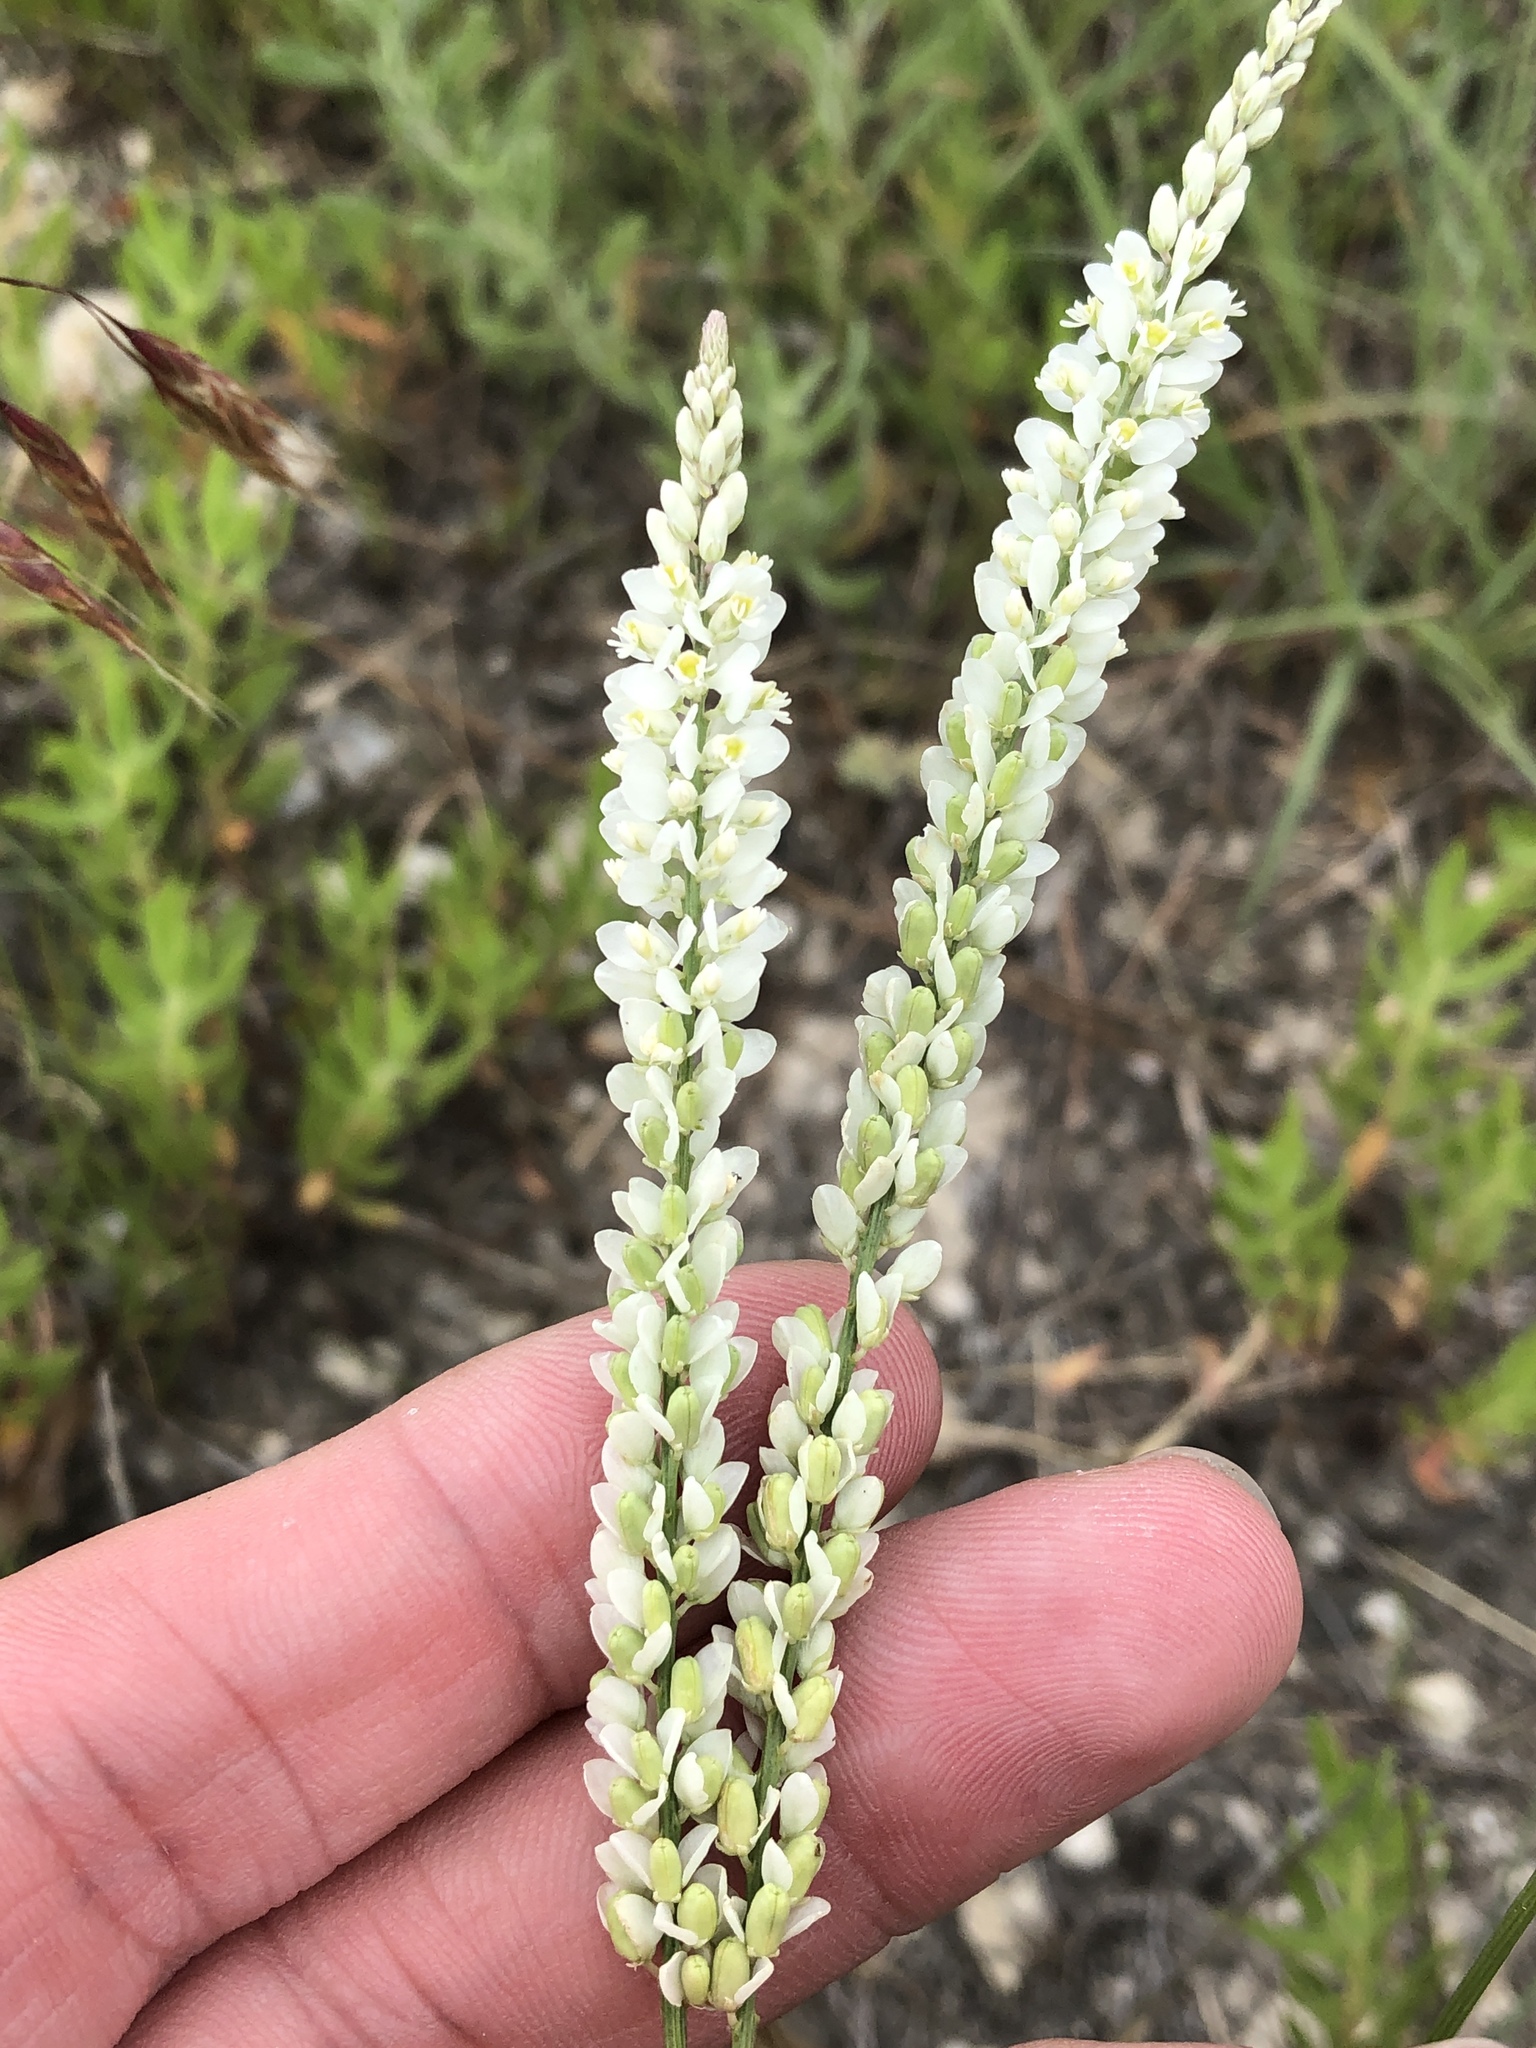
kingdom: Plantae
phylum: Tracheophyta
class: Magnoliopsida
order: Fabales
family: Polygalaceae
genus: Polygala
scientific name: Polygala alba
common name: White milkwort
